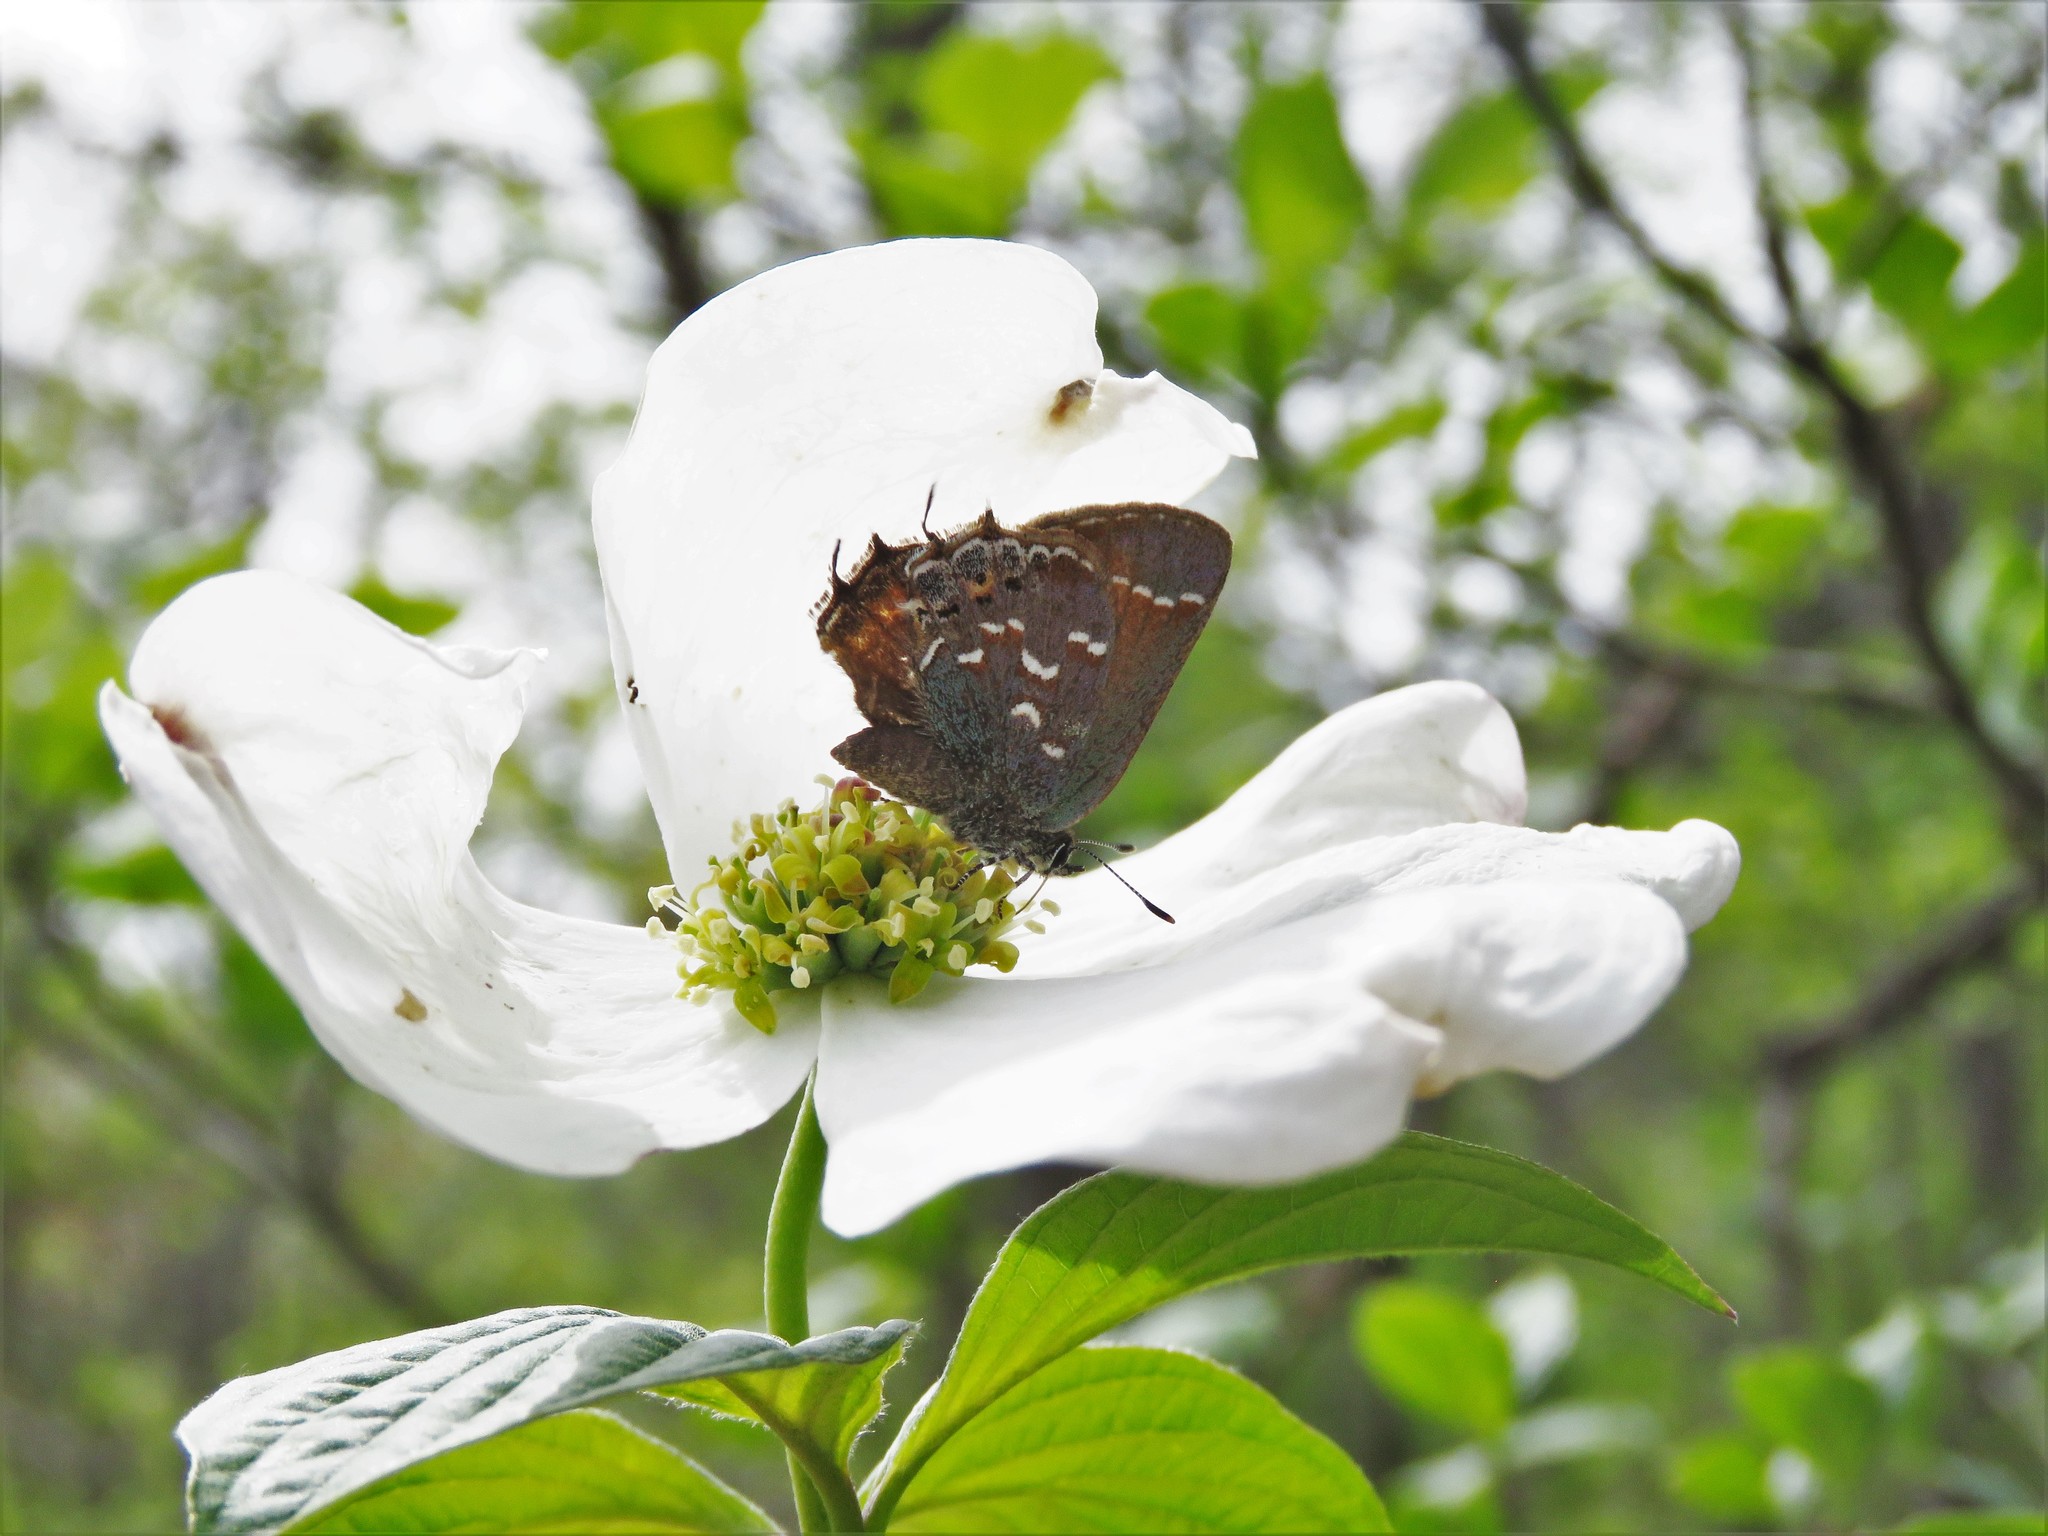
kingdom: Animalia
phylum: Arthropoda
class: Insecta
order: Lepidoptera
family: Lycaenidae
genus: Mitoura
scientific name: Mitoura gryneus
